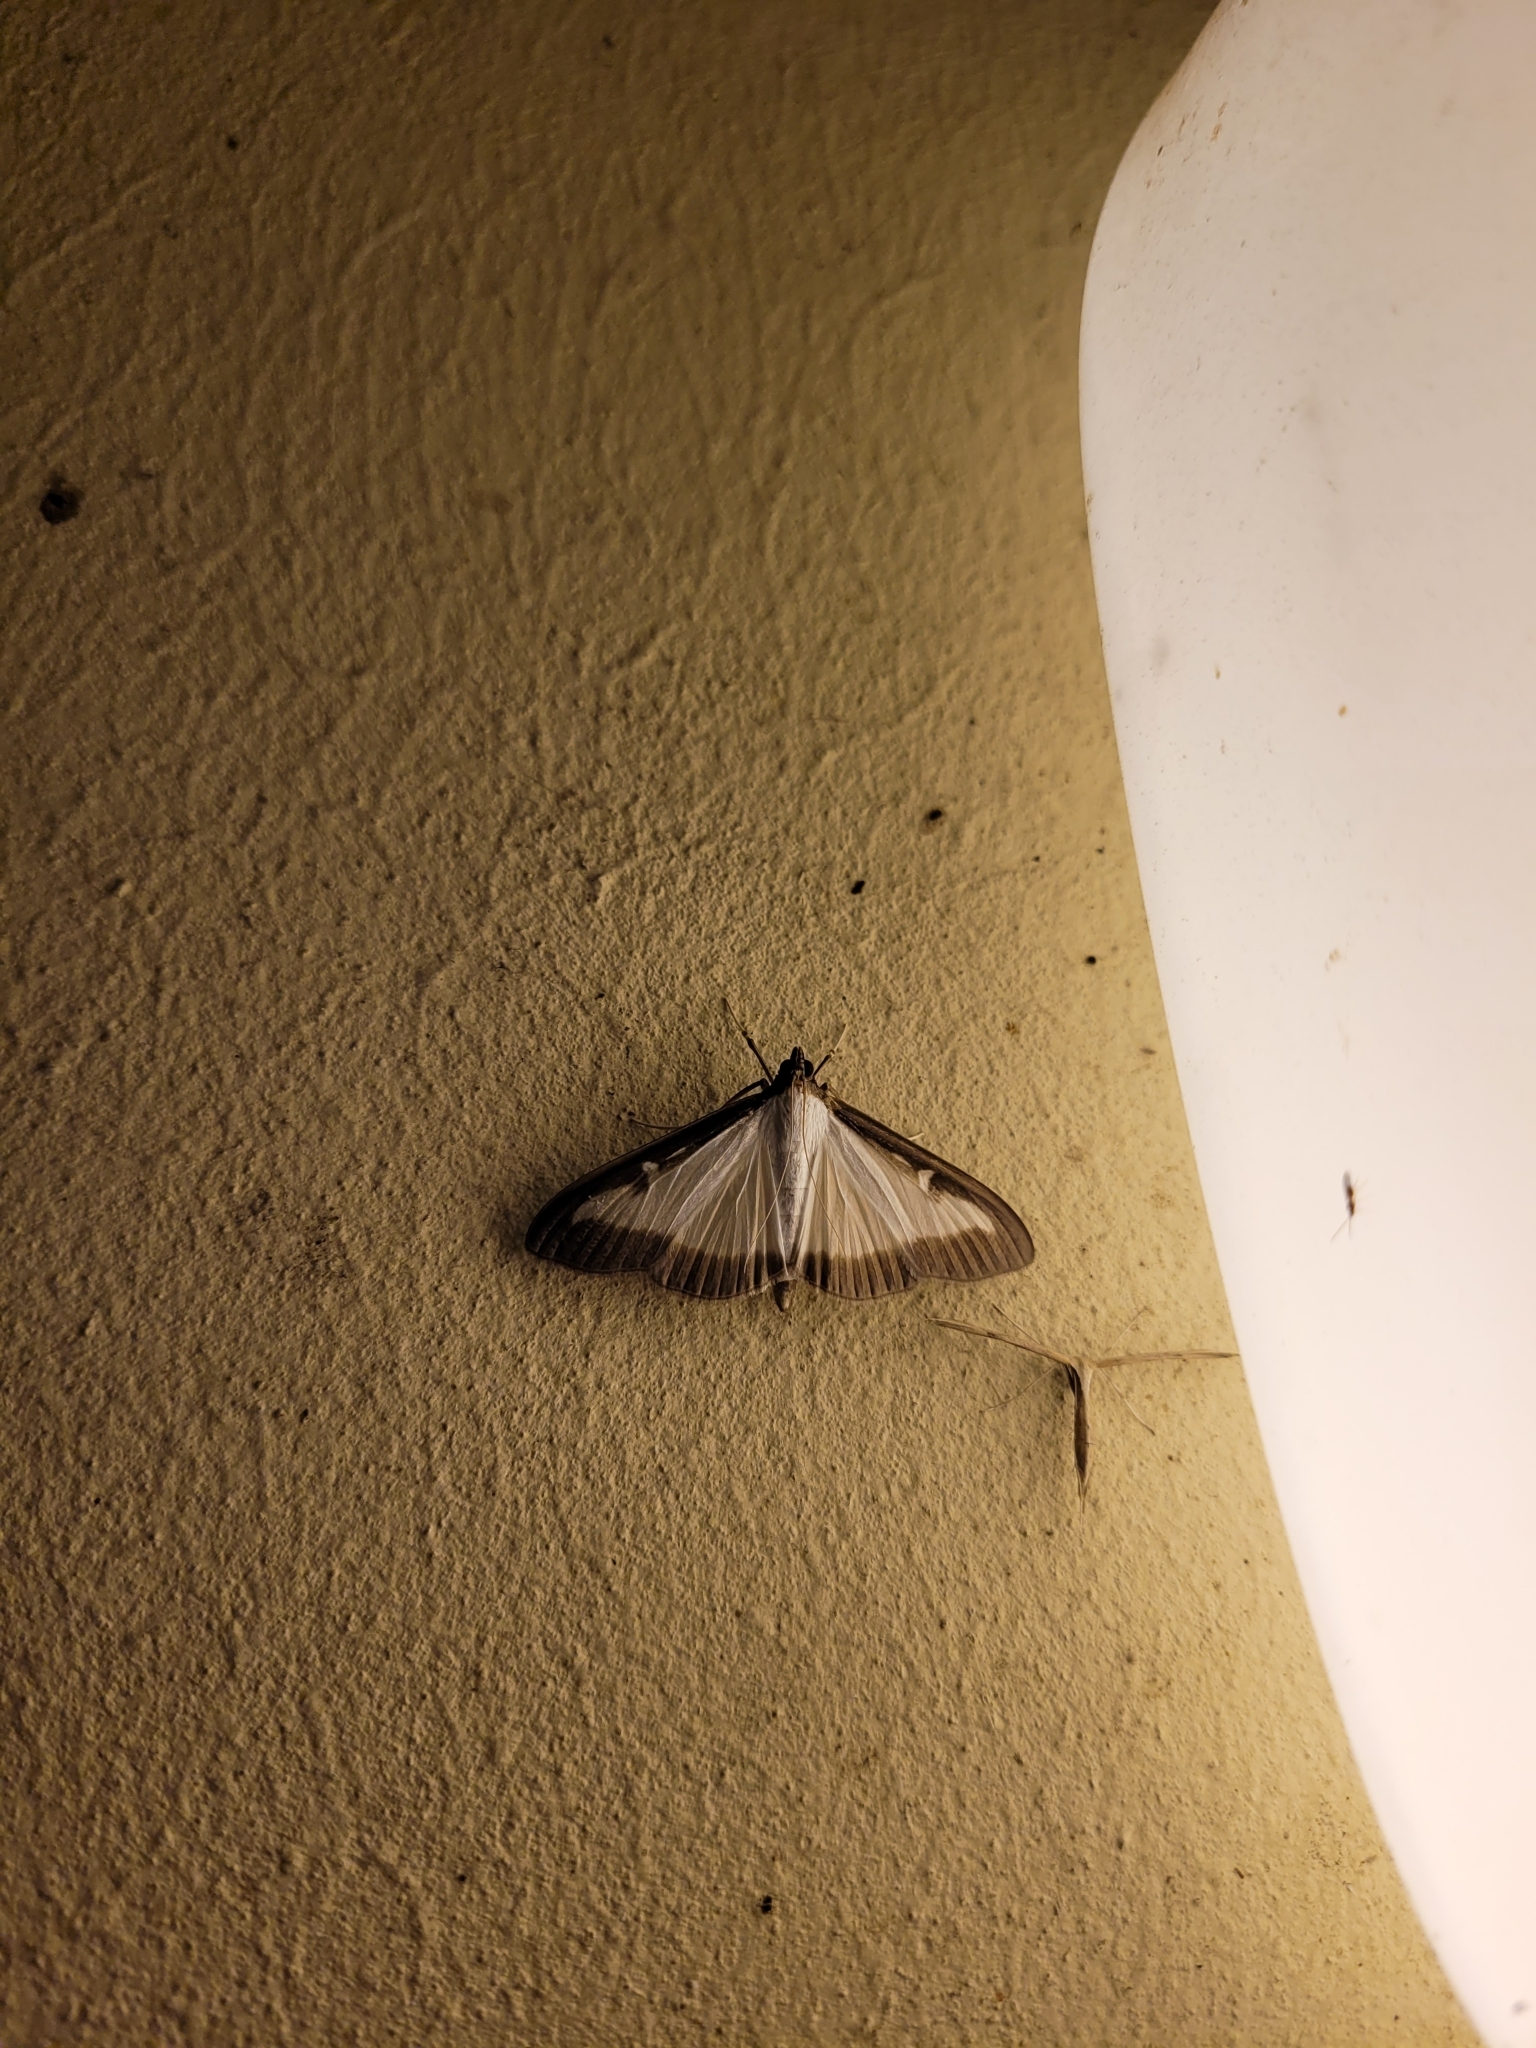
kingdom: Animalia
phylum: Arthropoda
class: Insecta
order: Lepidoptera
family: Crambidae
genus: Cydalima
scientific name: Cydalima perspectalis
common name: Box tree moth
